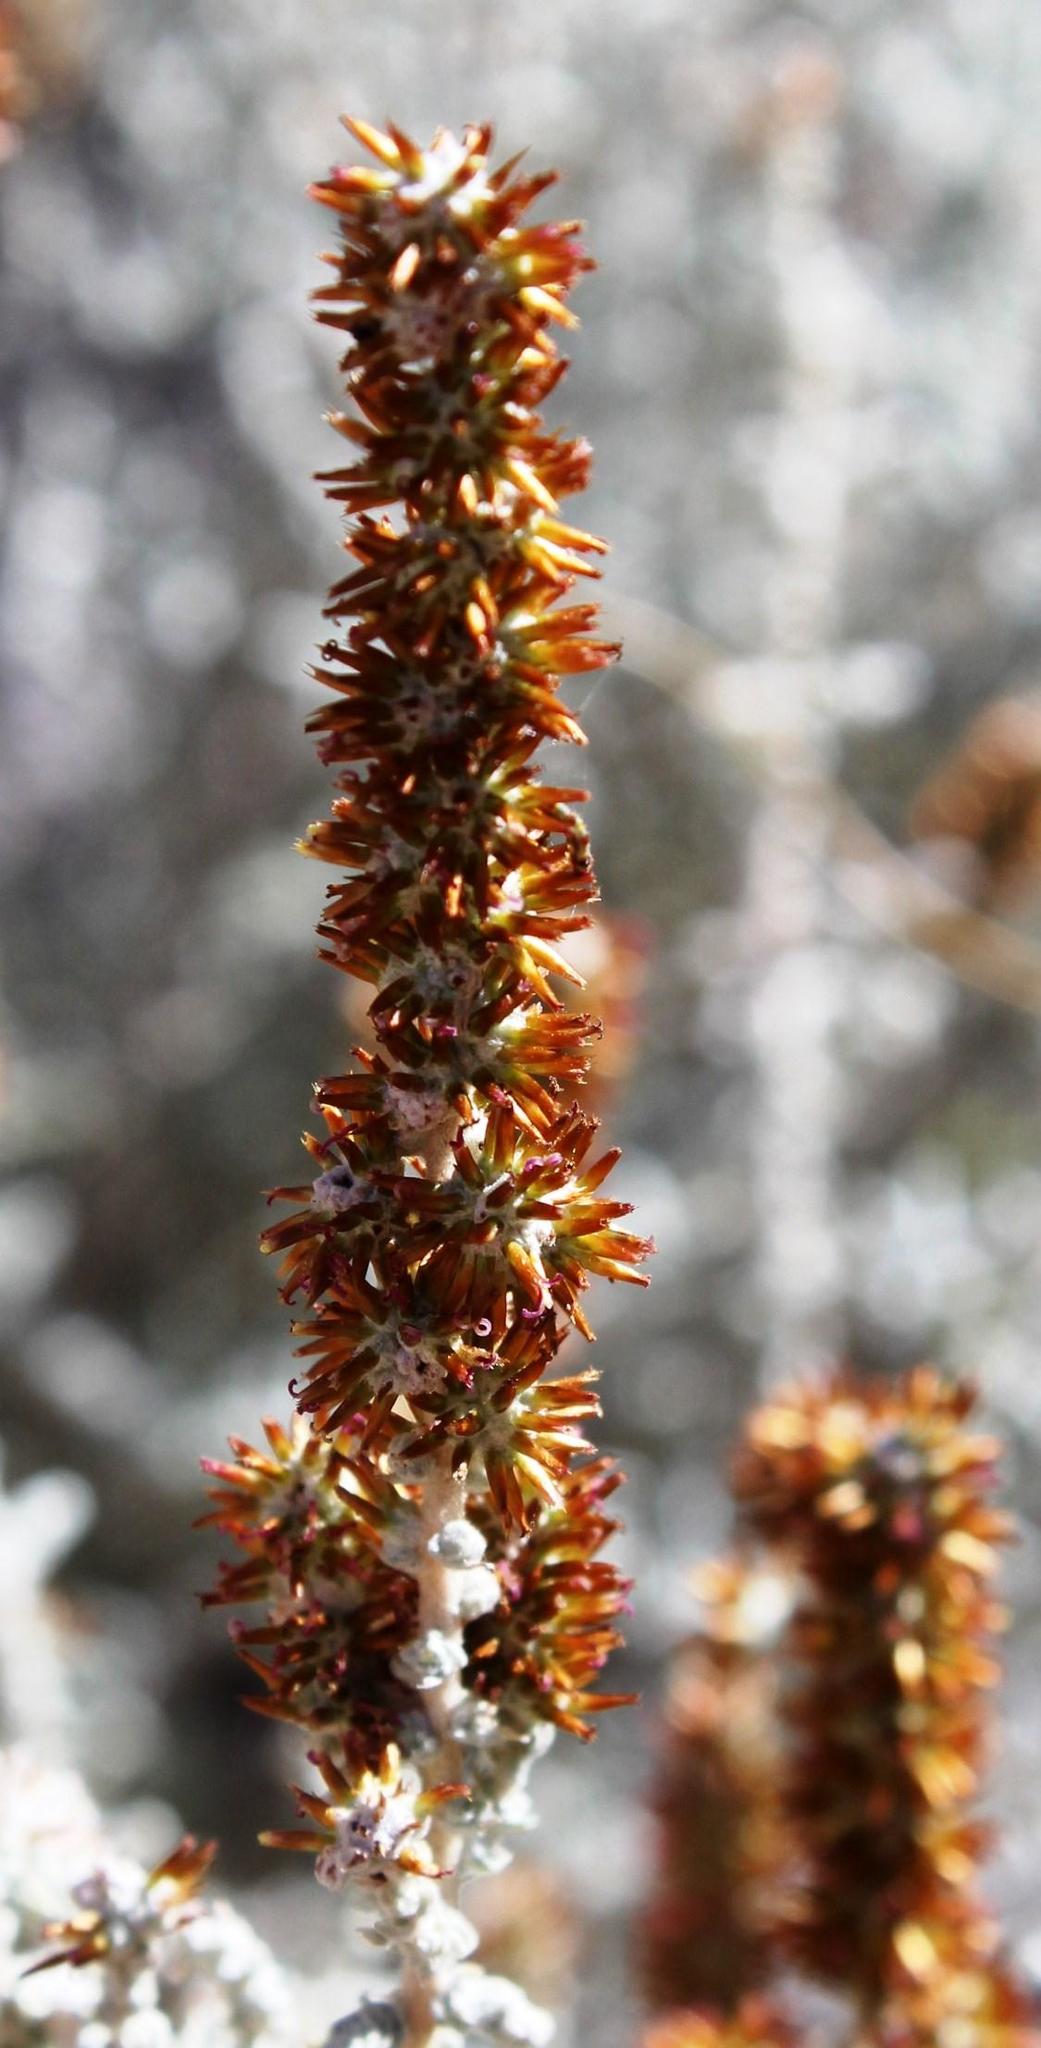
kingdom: Plantae
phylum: Tracheophyta
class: Magnoliopsida
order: Asterales
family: Asteraceae
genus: Seriphium
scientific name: Seriphium plumosum
